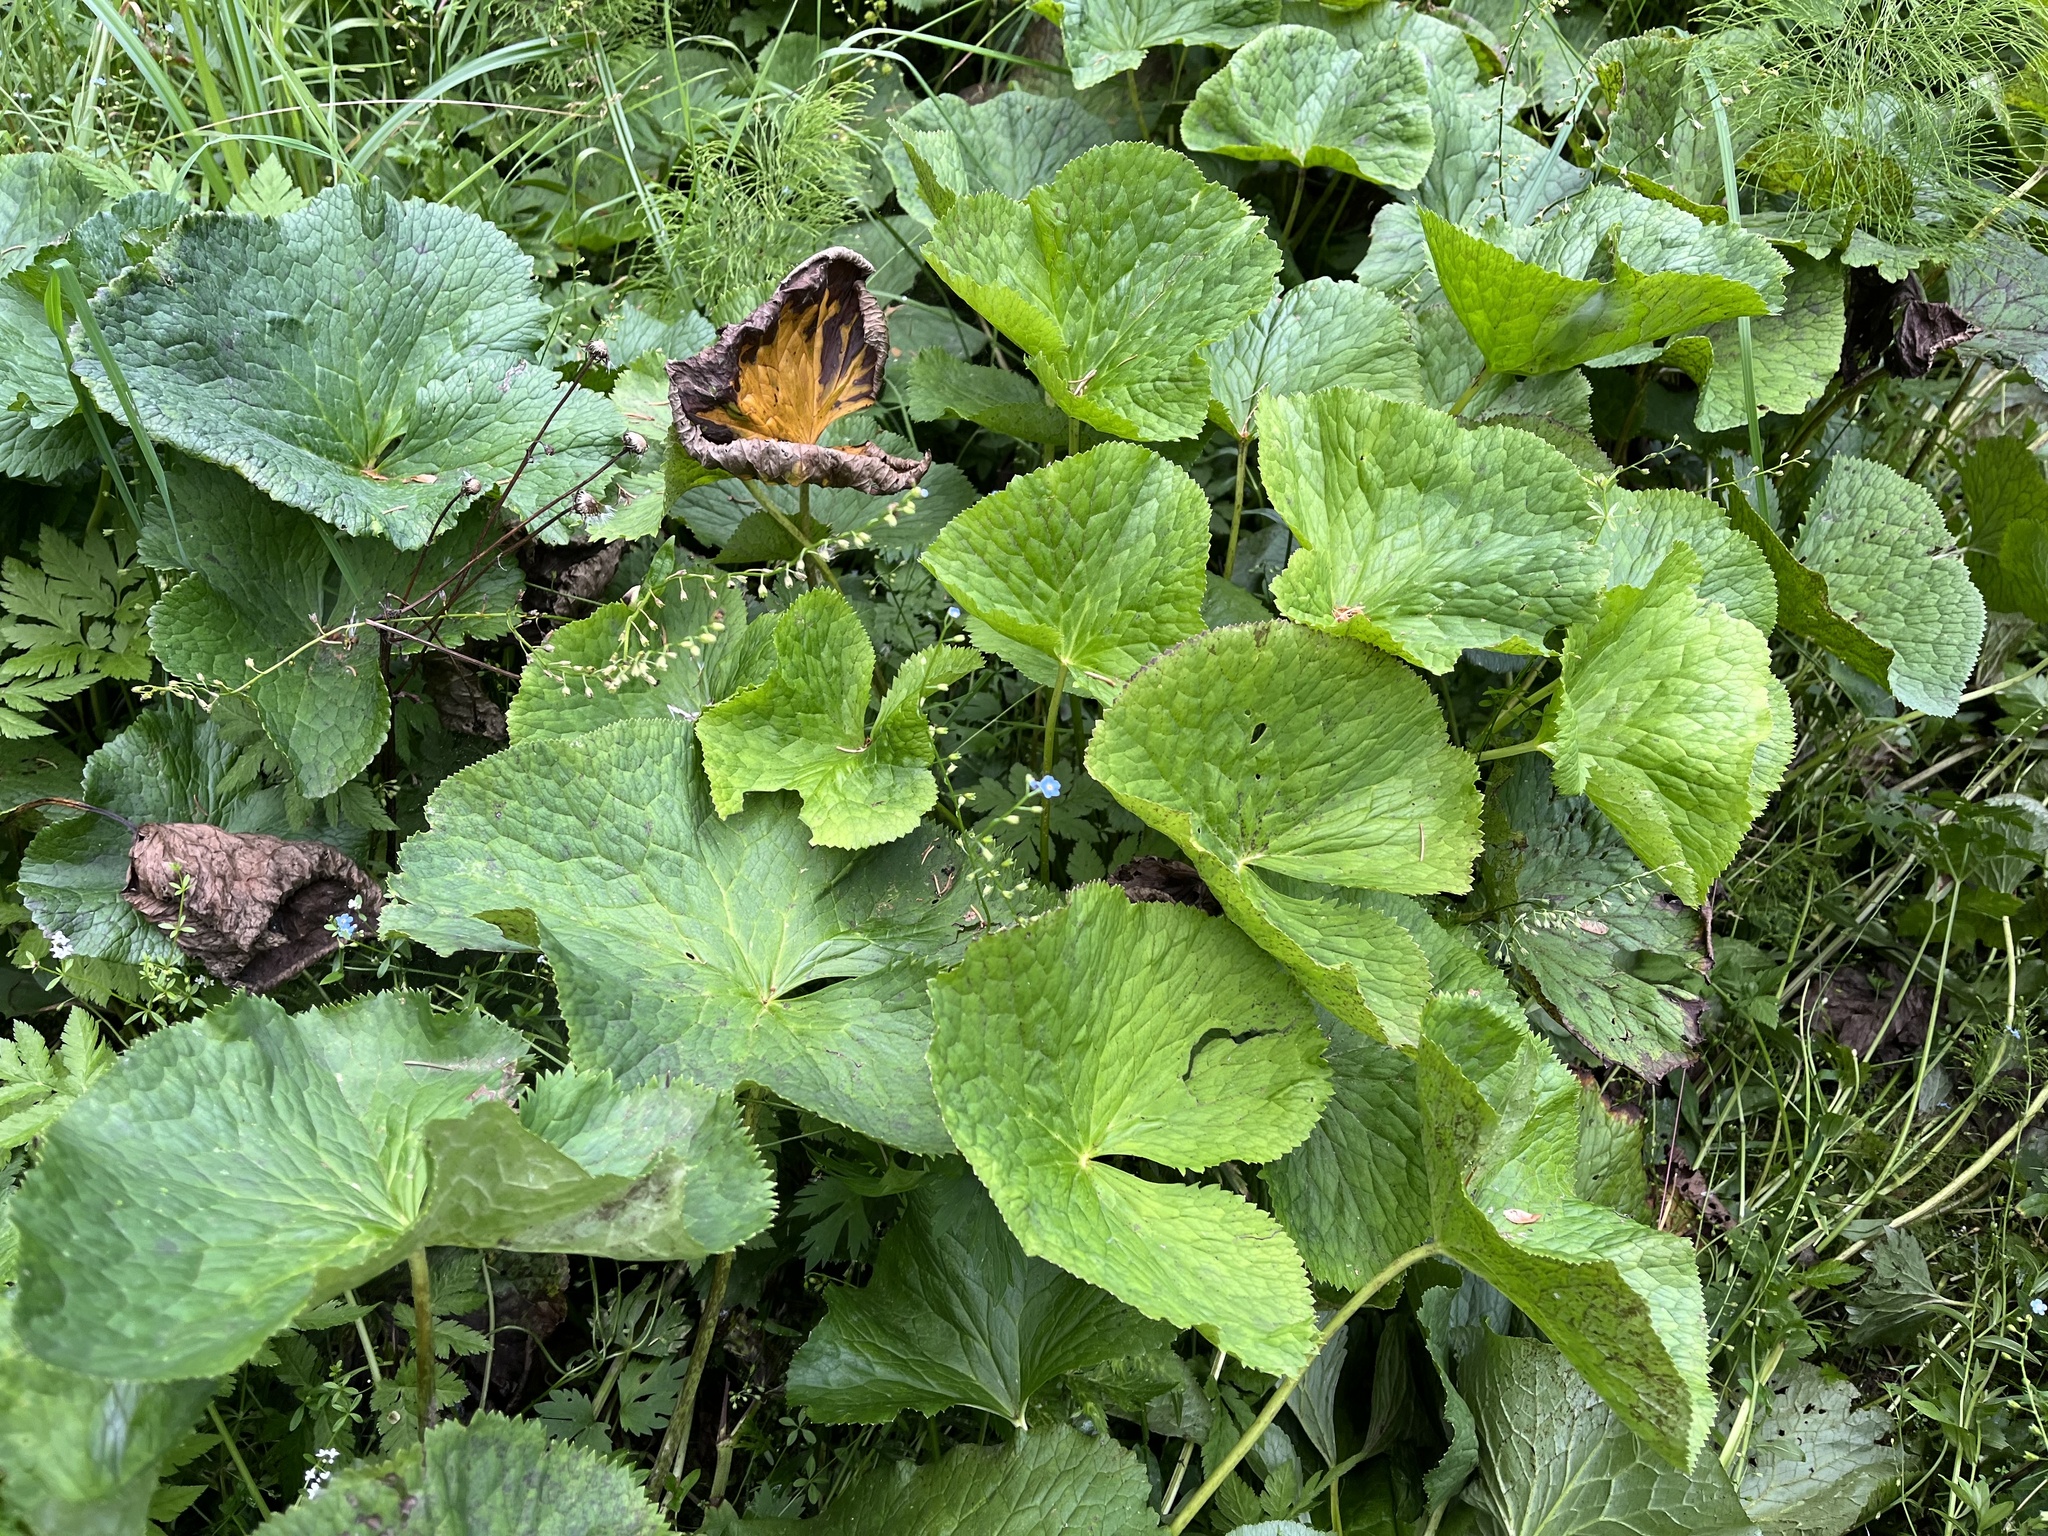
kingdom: Plantae
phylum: Tracheophyta
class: Magnoliopsida
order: Ranunculales
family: Ranunculaceae
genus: Caltha
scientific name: Caltha palustris
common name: Marsh marigold
